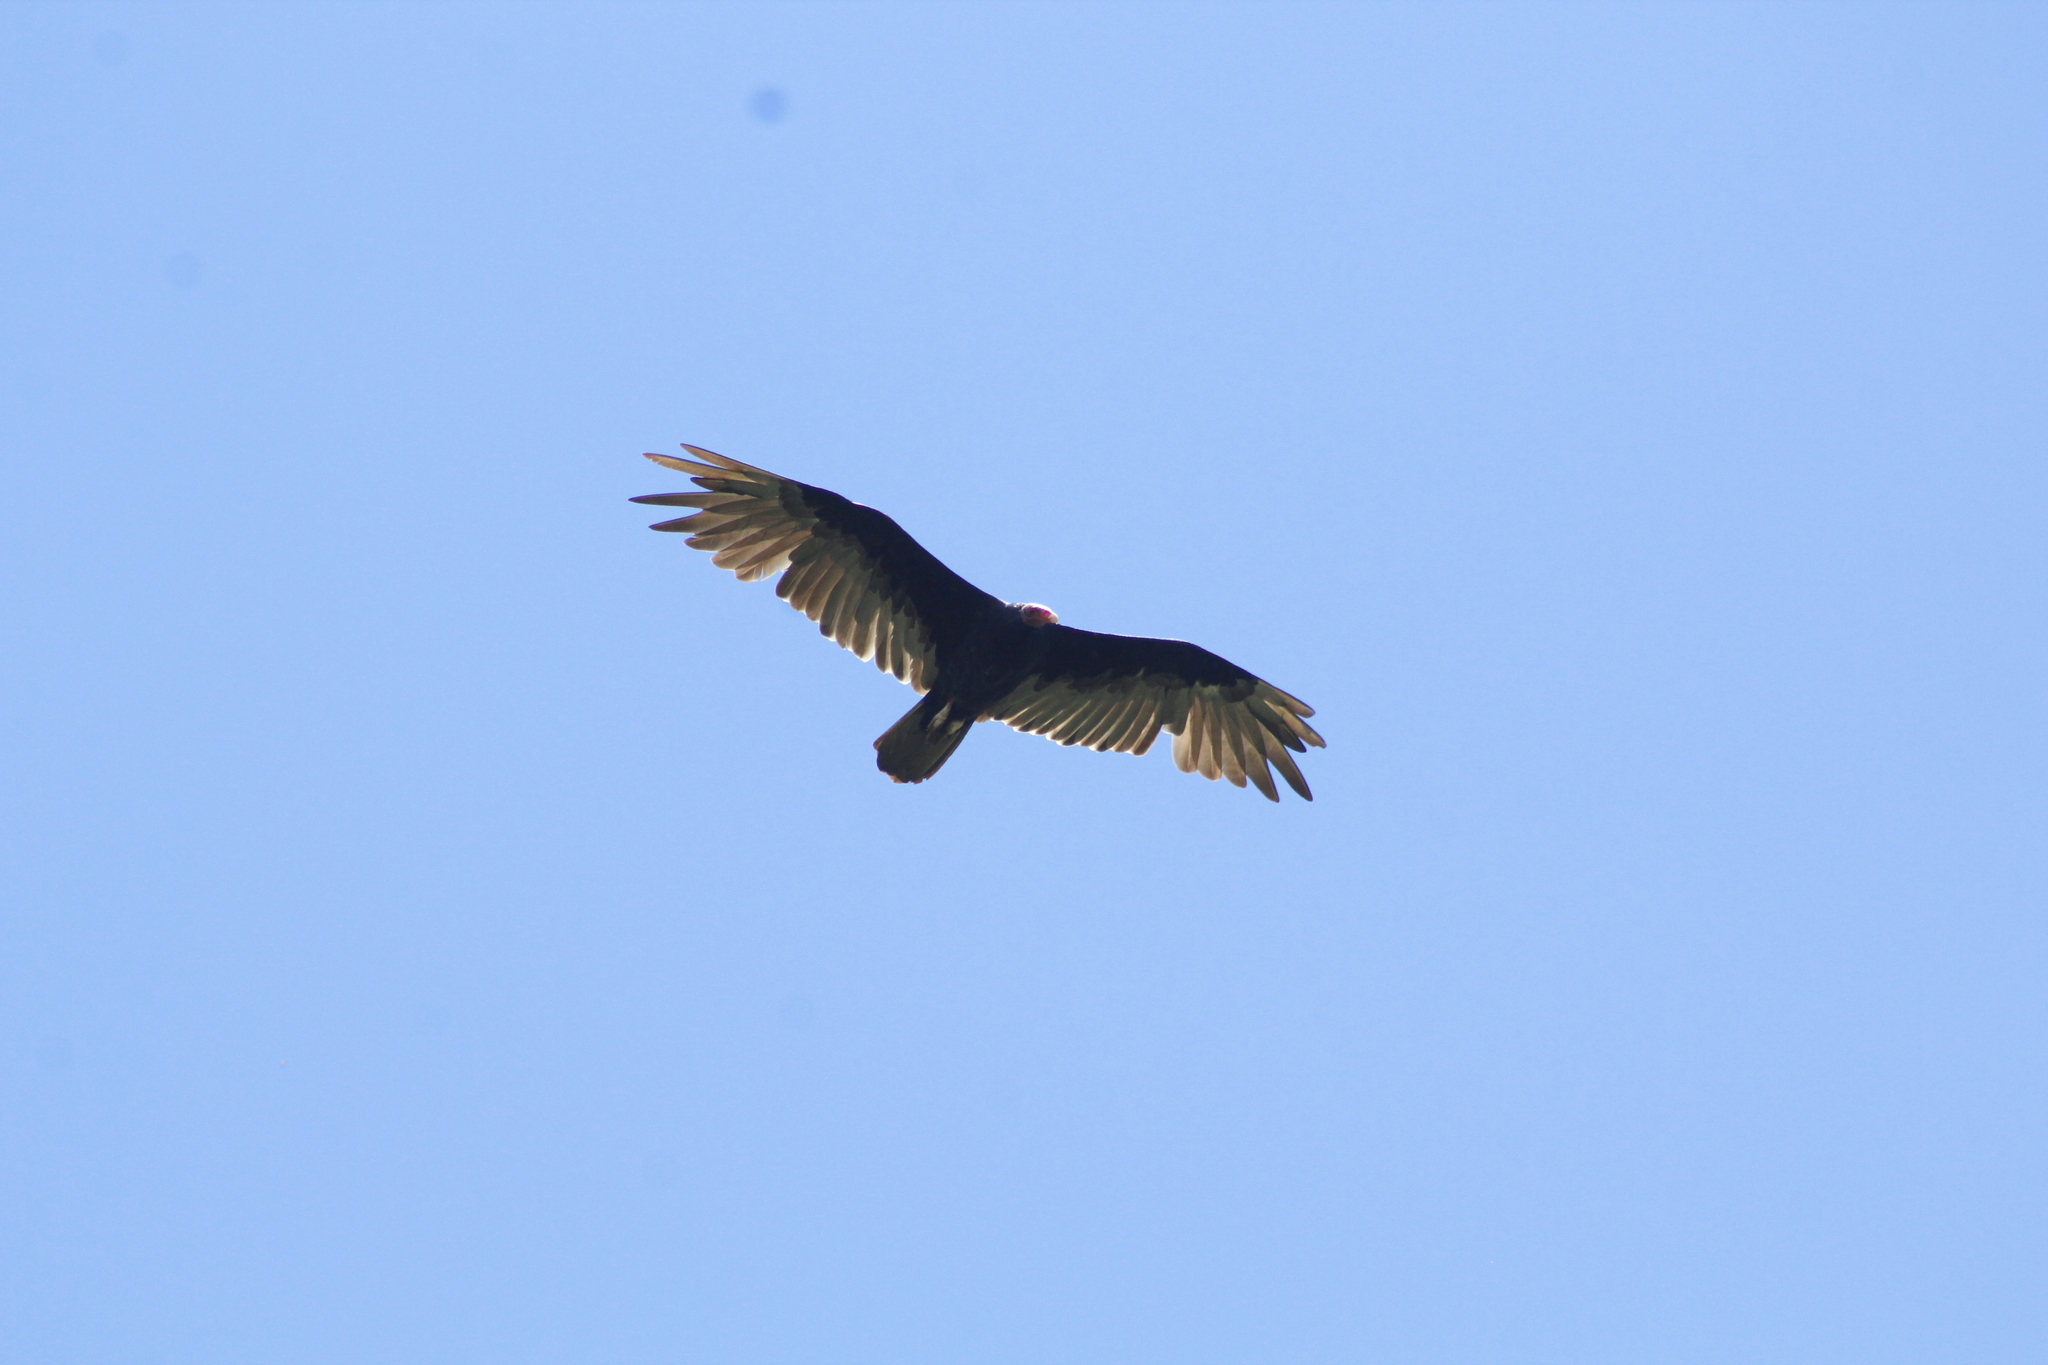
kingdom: Animalia
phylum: Chordata
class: Aves
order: Accipitriformes
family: Cathartidae
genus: Cathartes
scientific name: Cathartes aura
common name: Turkey vulture
